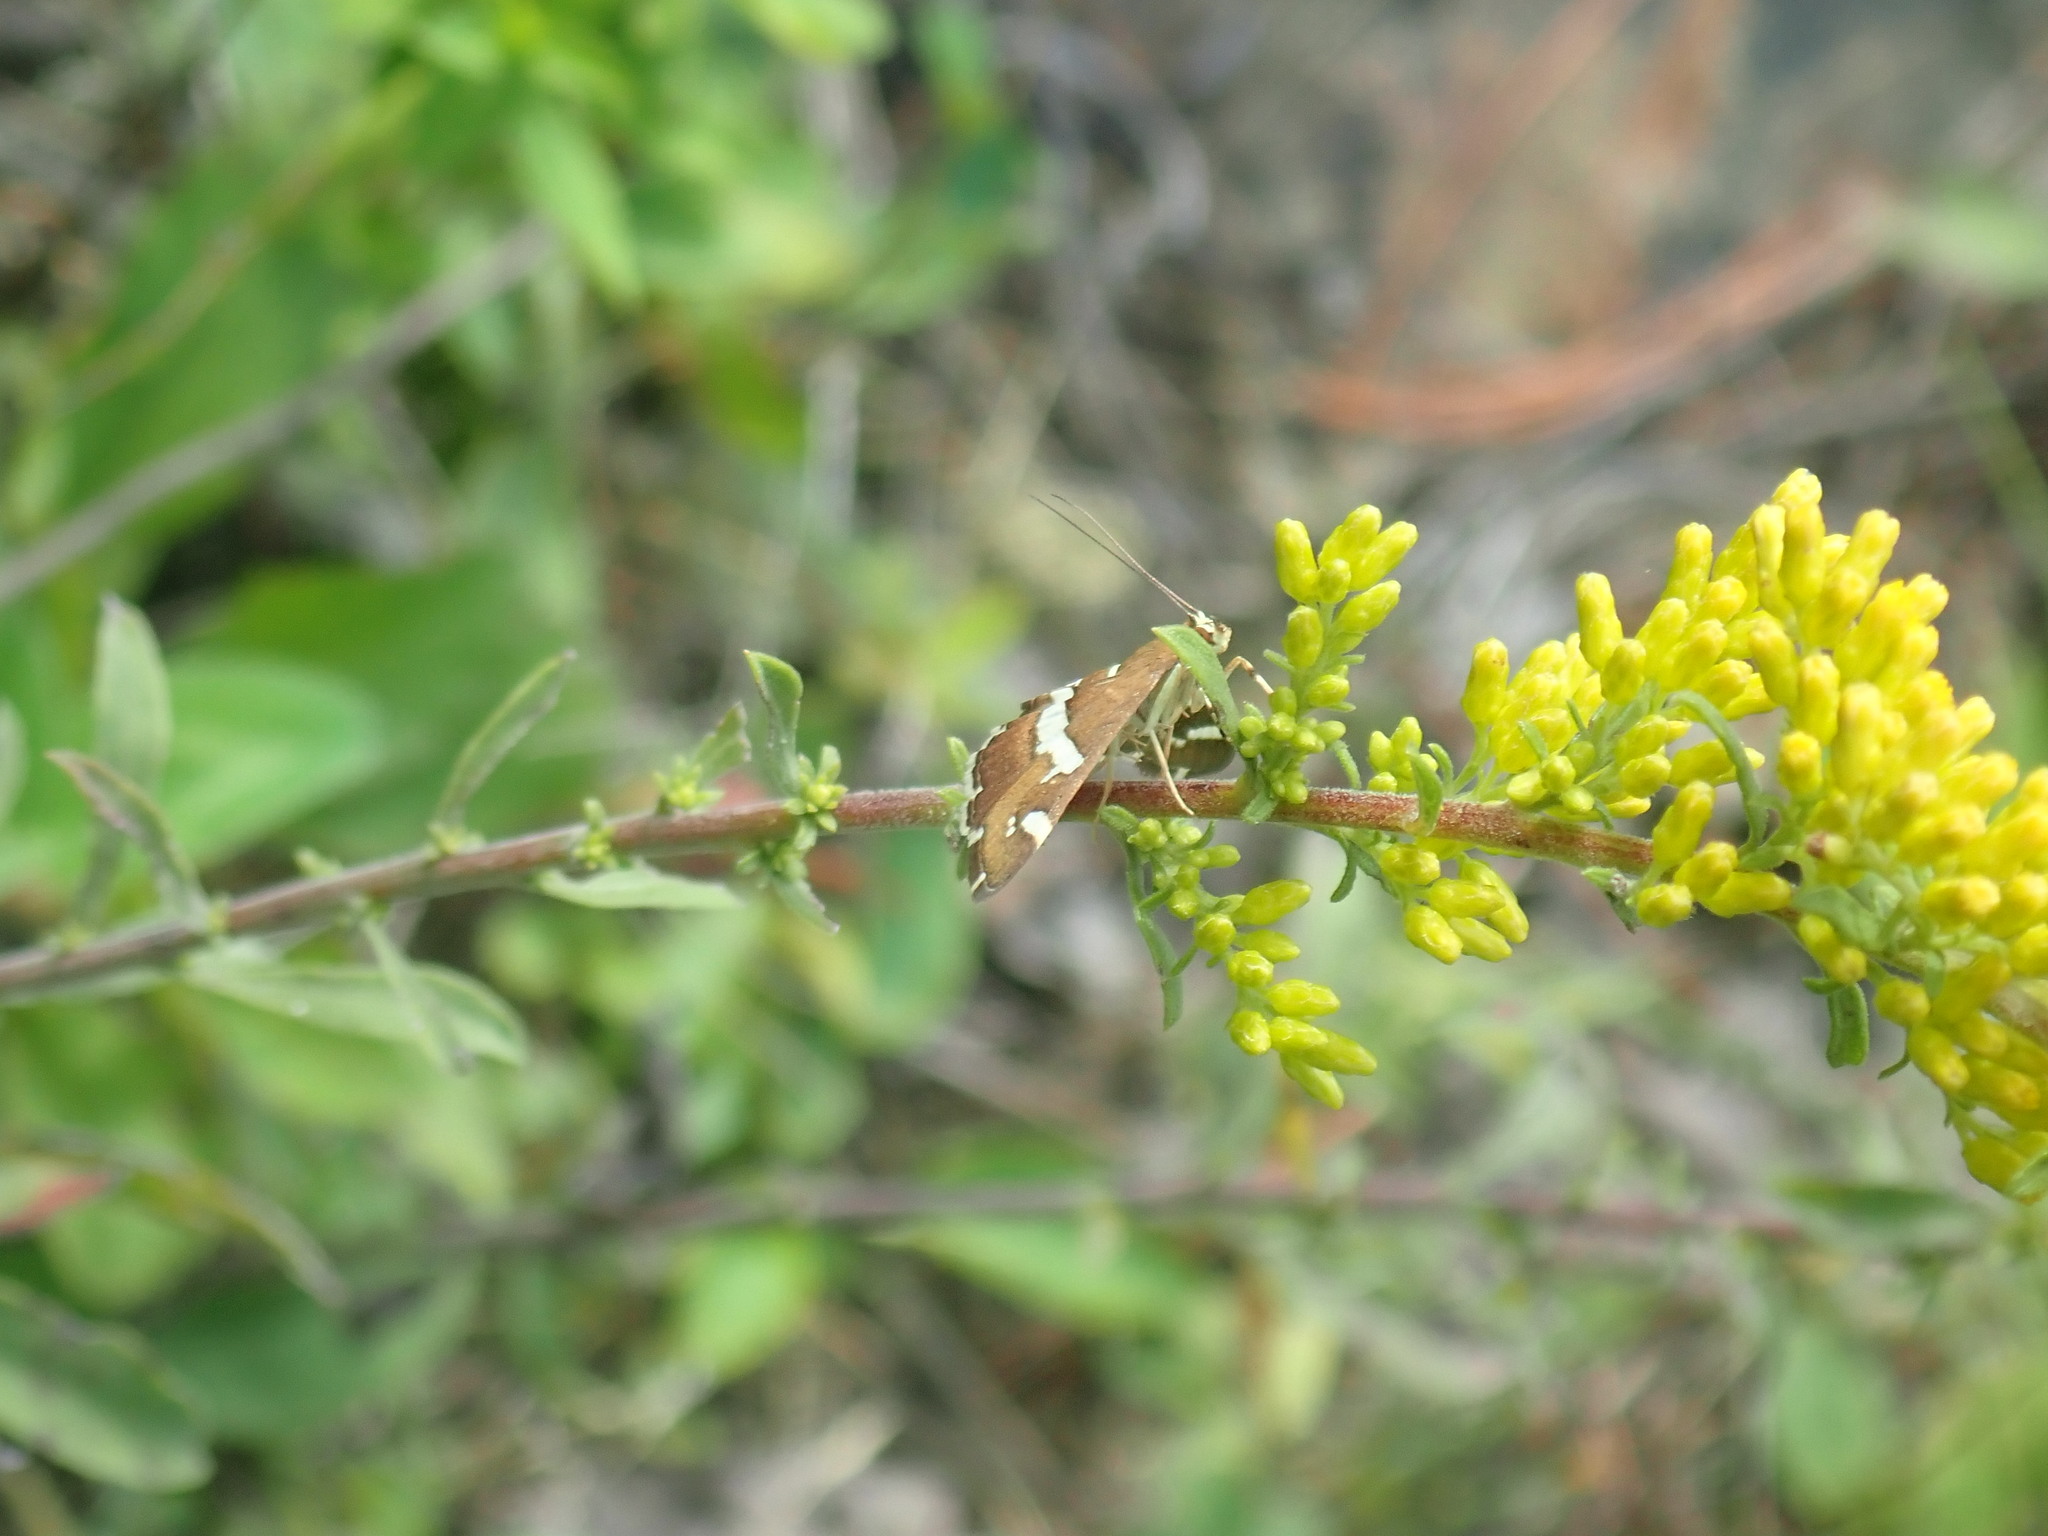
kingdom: Animalia
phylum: Arthropoda
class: Insecta
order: Lepidoptera
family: Crambidae
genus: Spoladea
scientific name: Spoladea recurvalis
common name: Beet webworm moth
